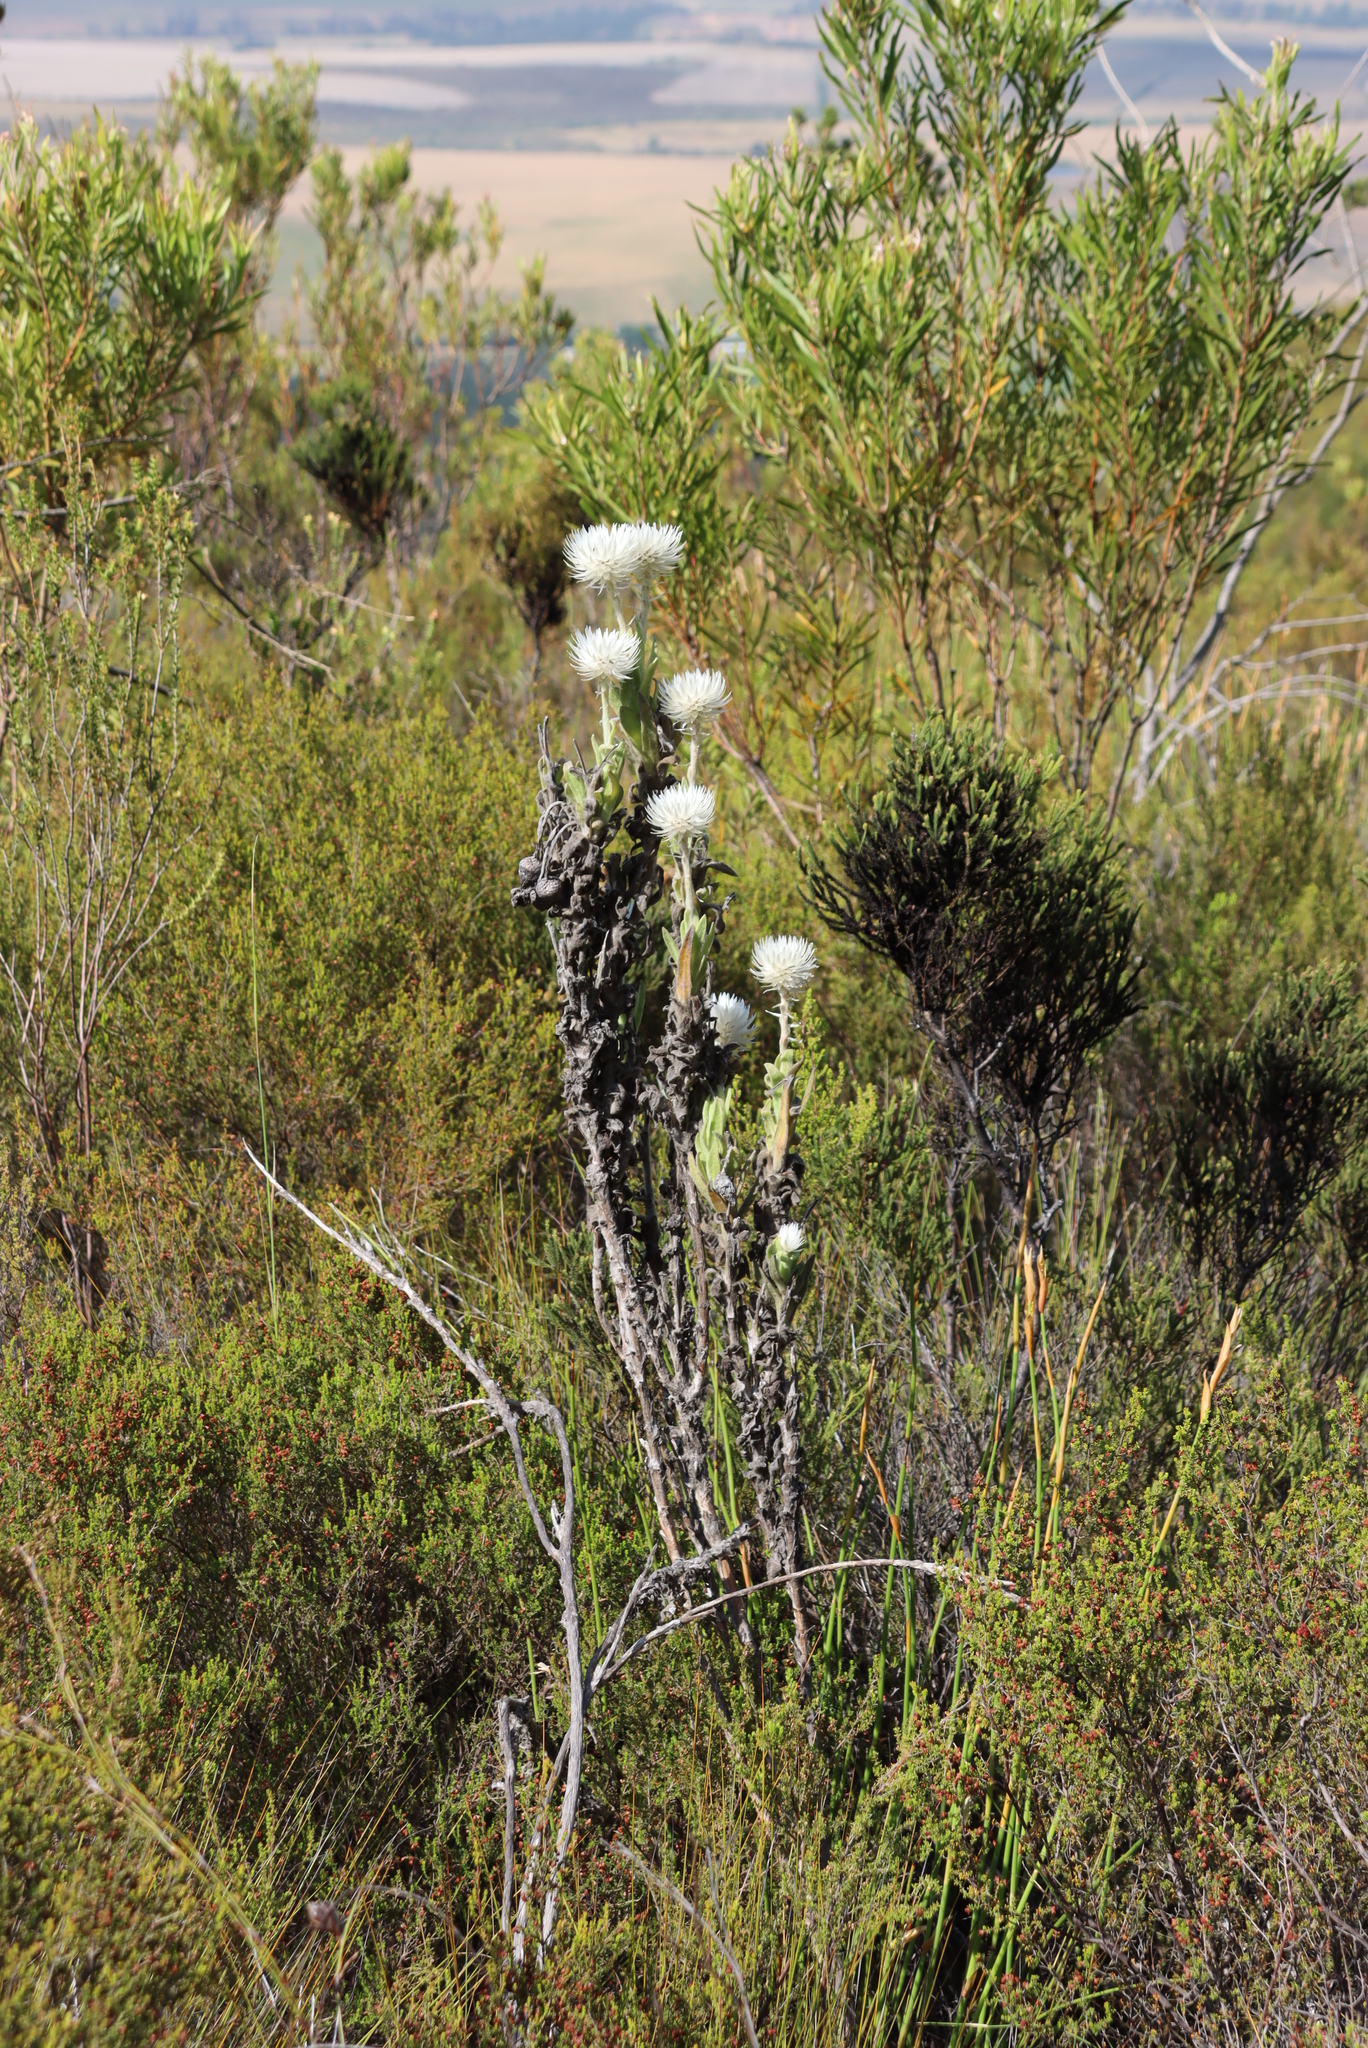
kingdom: Plantae
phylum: Tracheophyta
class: Magnoliopsida
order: Asterales
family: Asteraceae
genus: Syncarpha
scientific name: Syncarpha vestita
